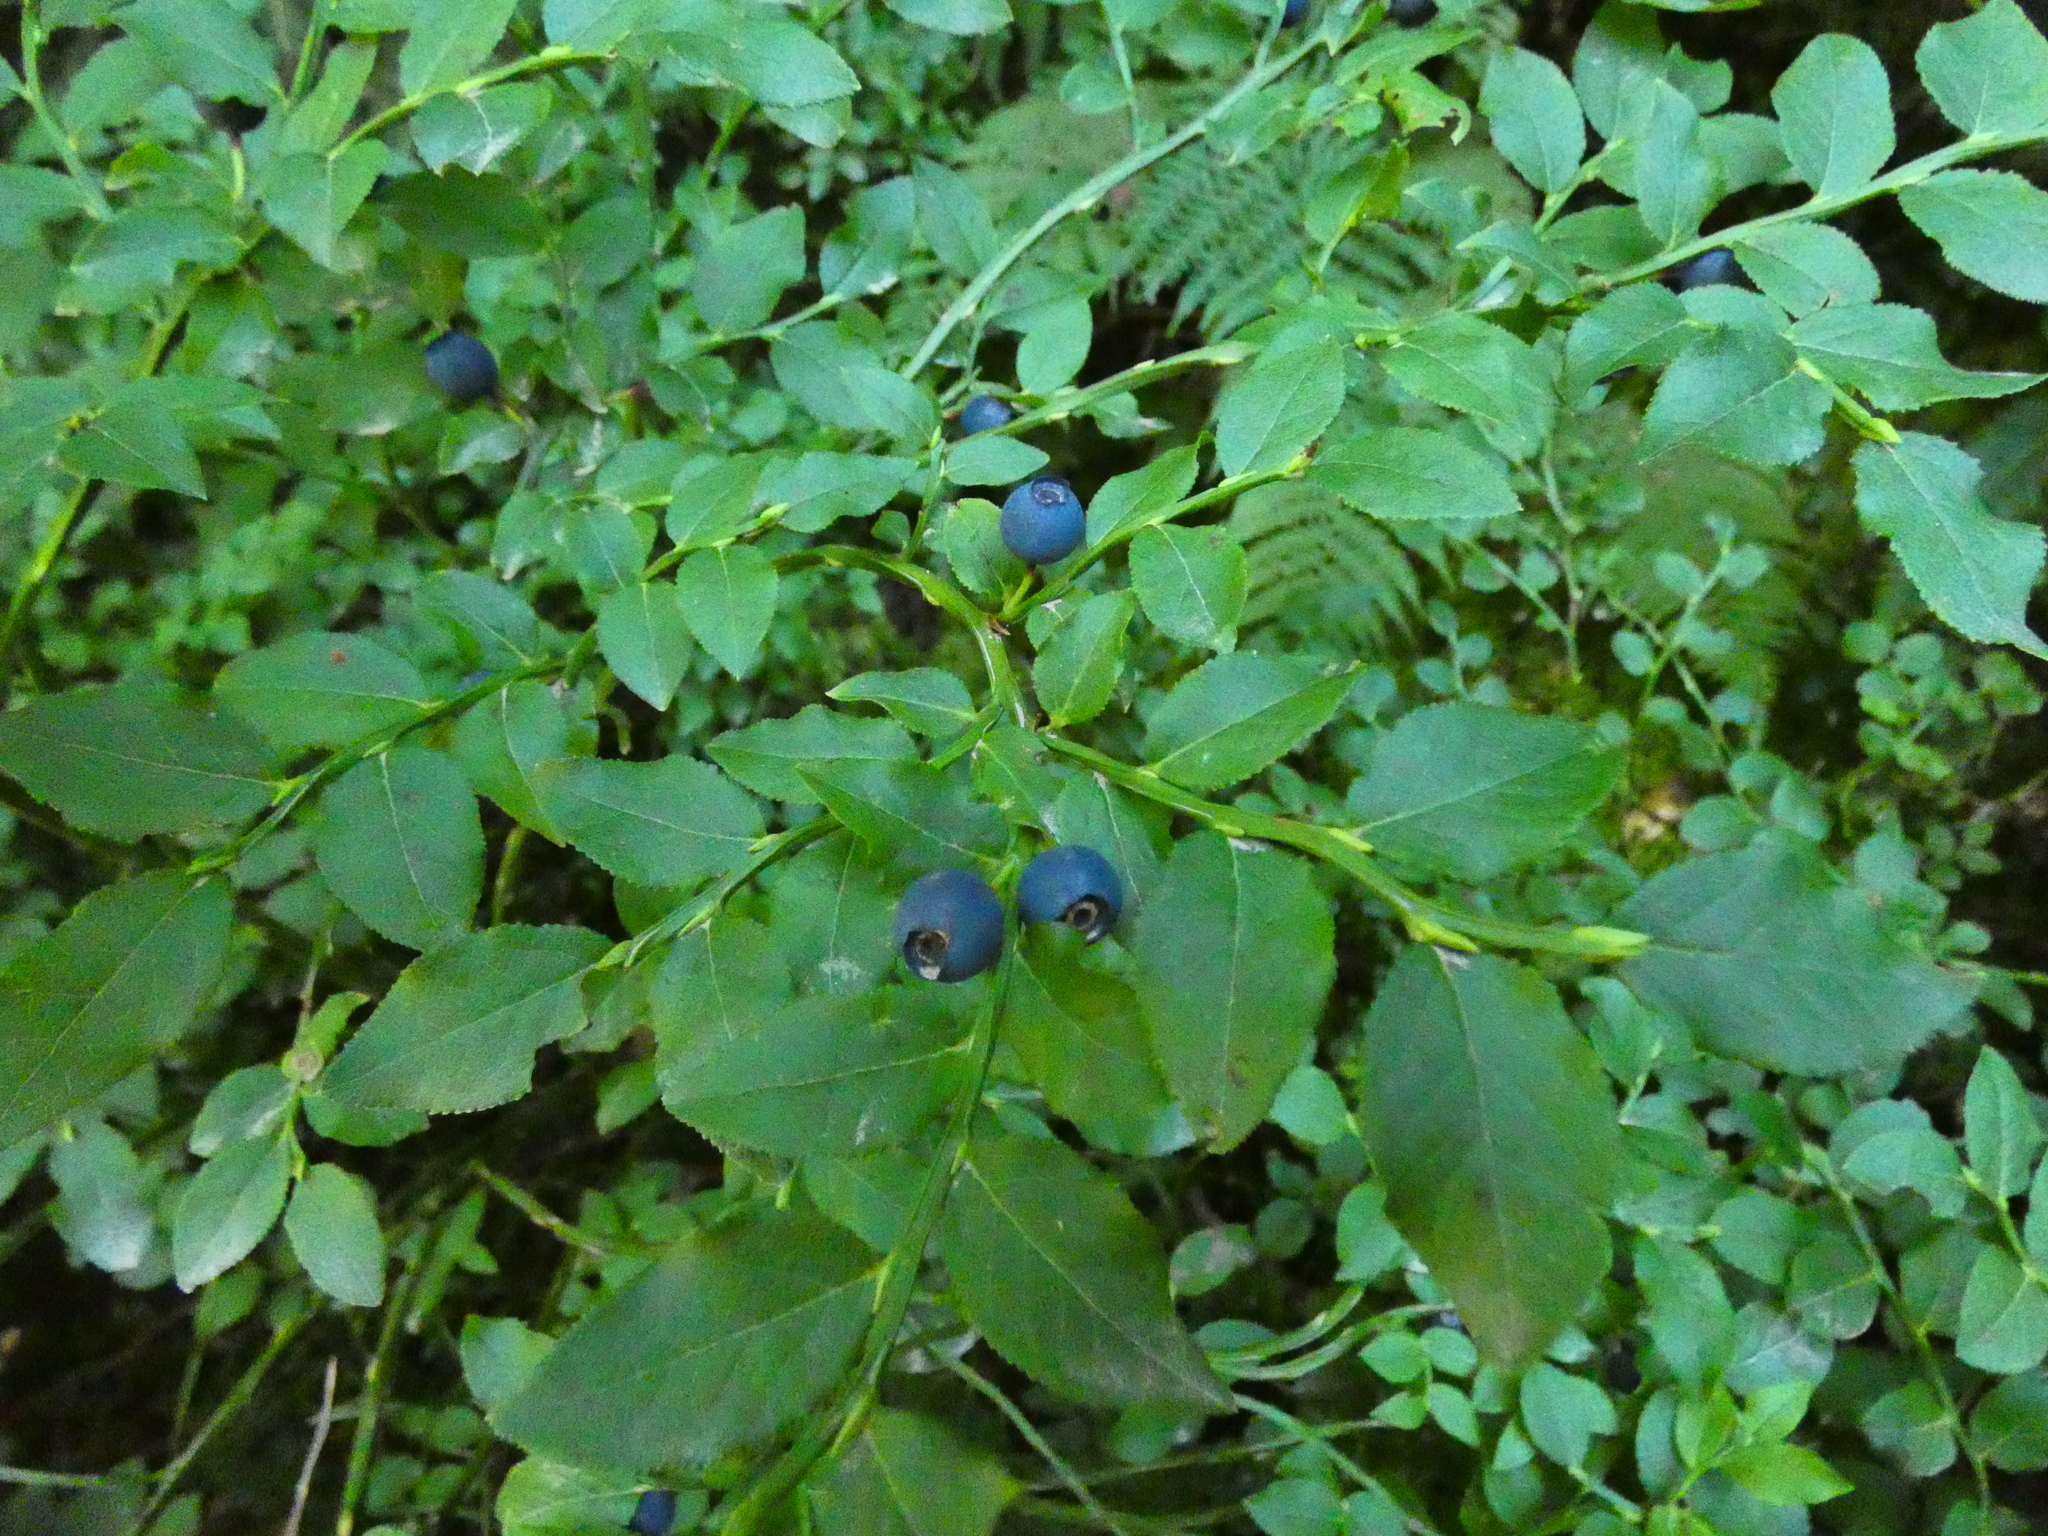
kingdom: Plantae
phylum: Tracheophyta
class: Magnoliopsida
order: Ericales
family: Ericaceae
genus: Vaccinium
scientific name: Vaccinium myrtillus
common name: Bilberry
